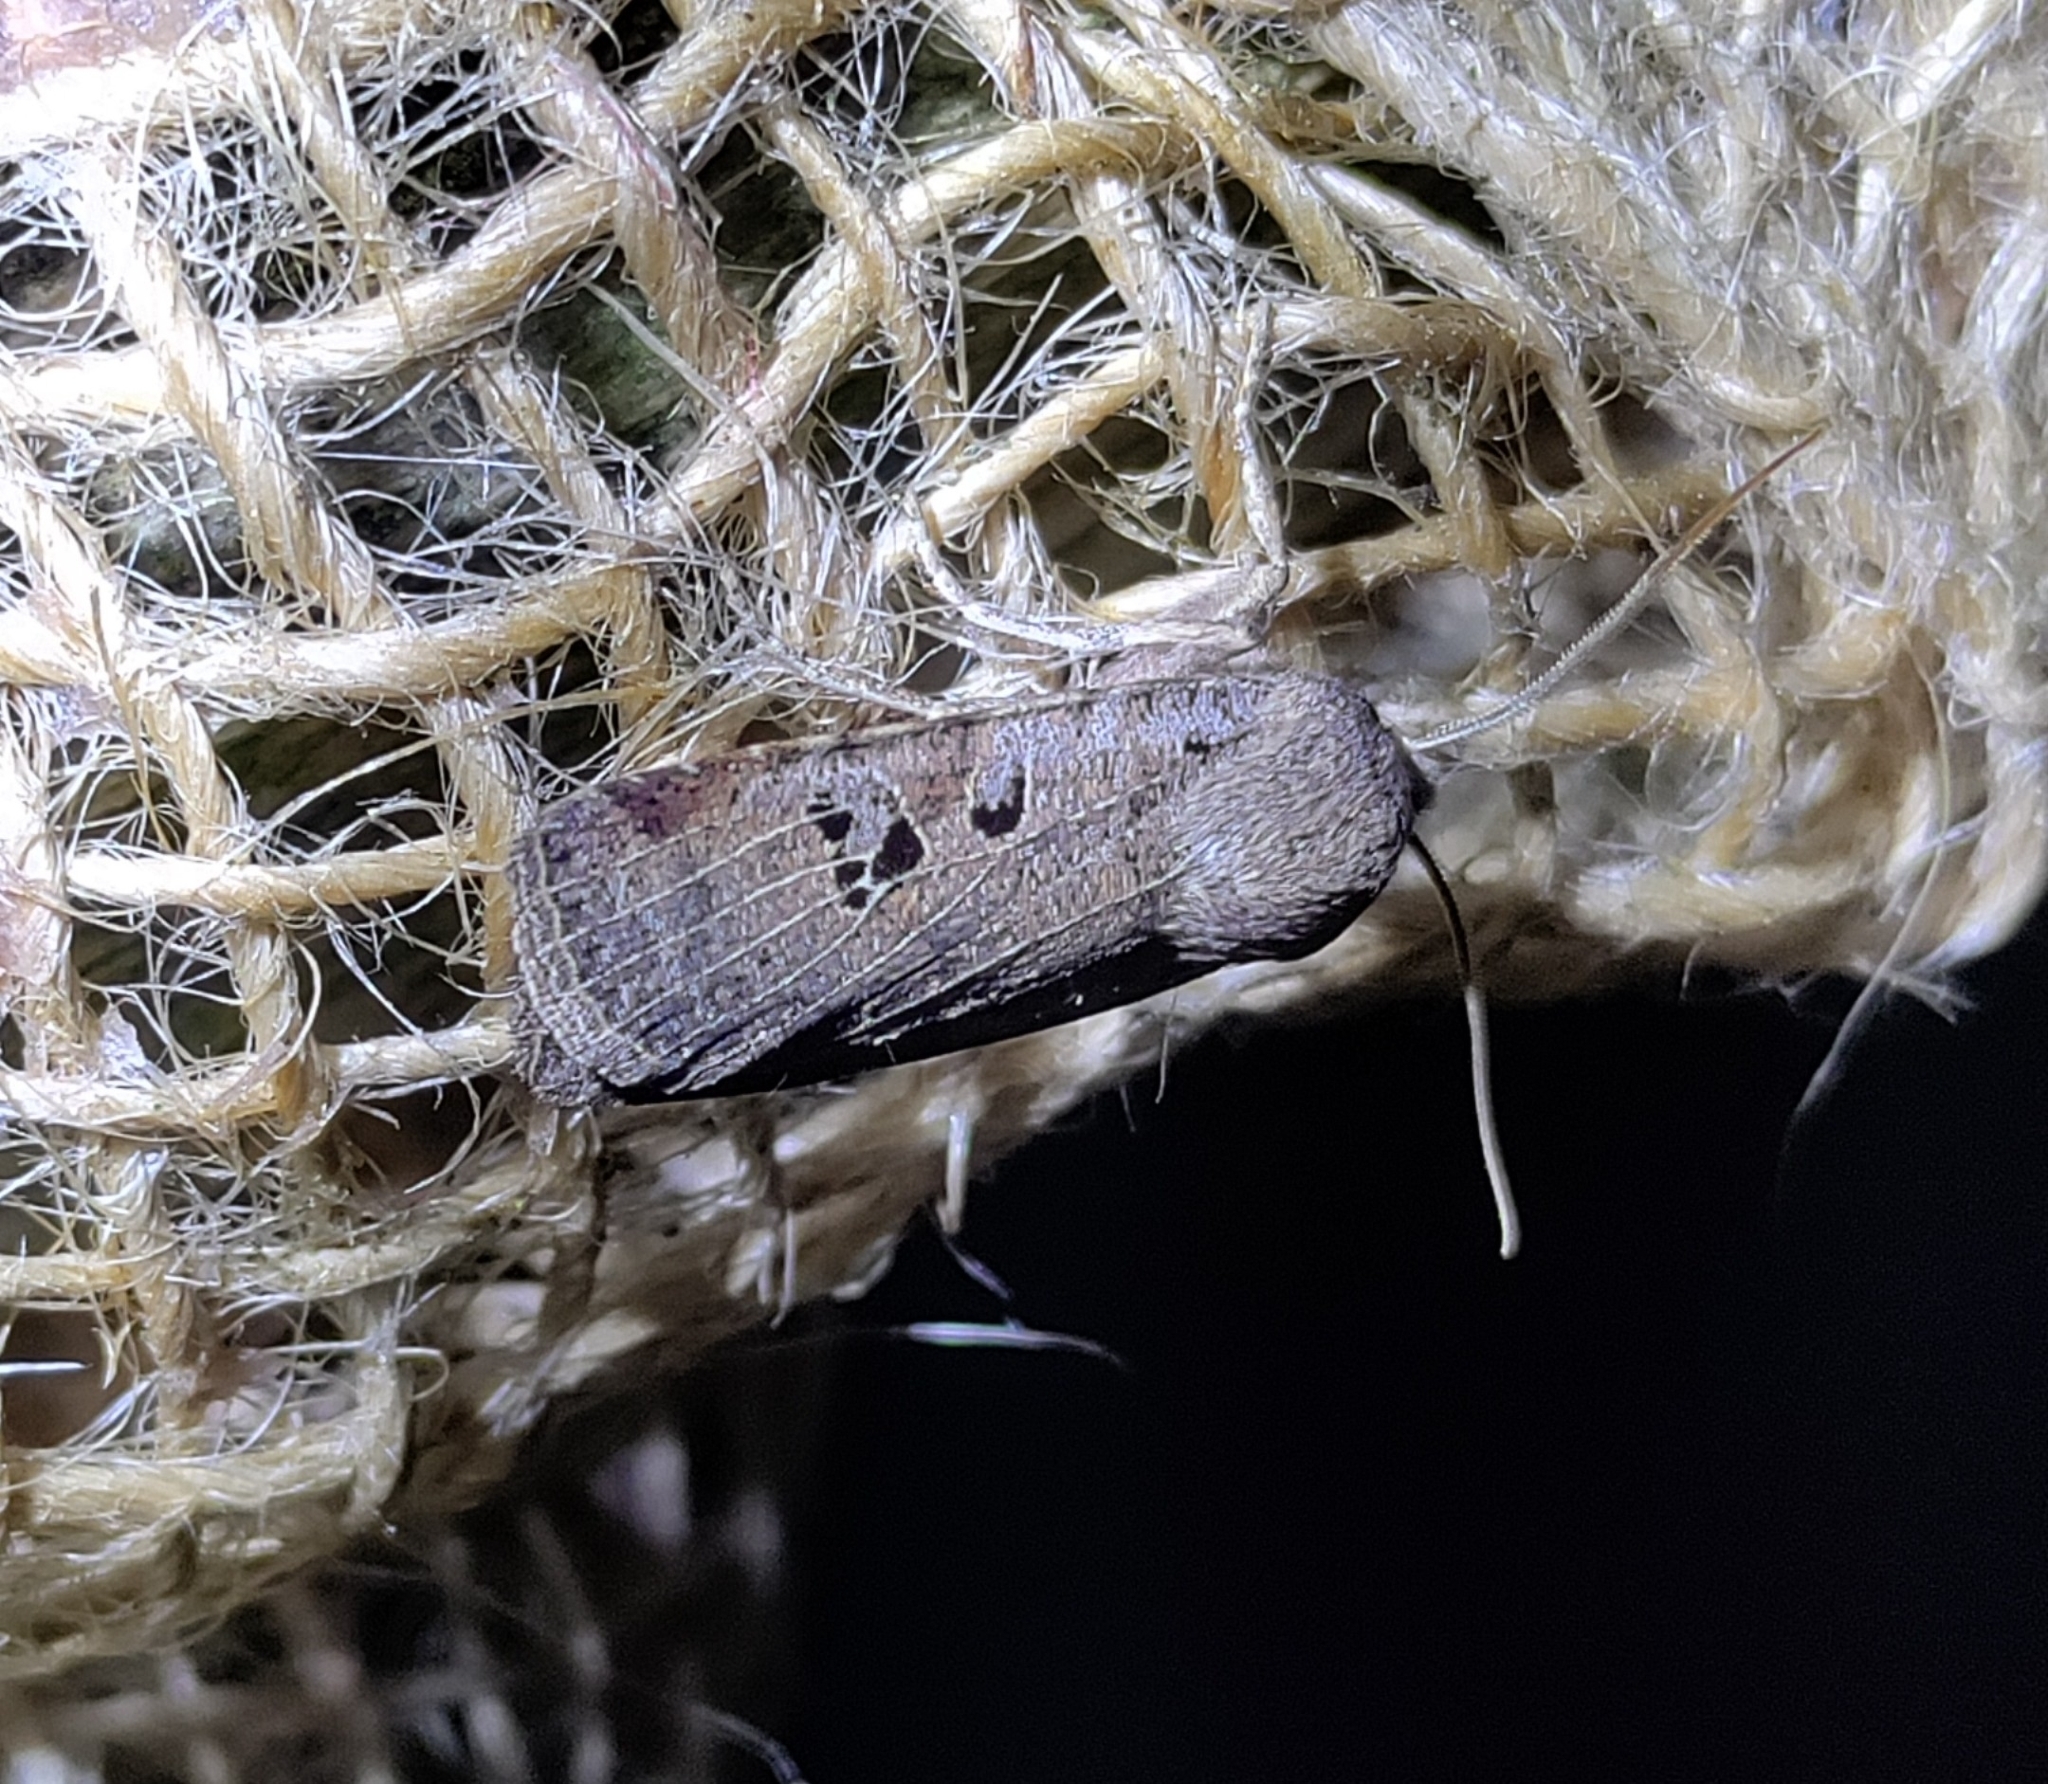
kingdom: Animalia
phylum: Arthropoda
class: Insecta
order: Lepidoptera
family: Noctuidae
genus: Conistra
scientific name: Conistra rubiginosa
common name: Black-spotted chestnut
